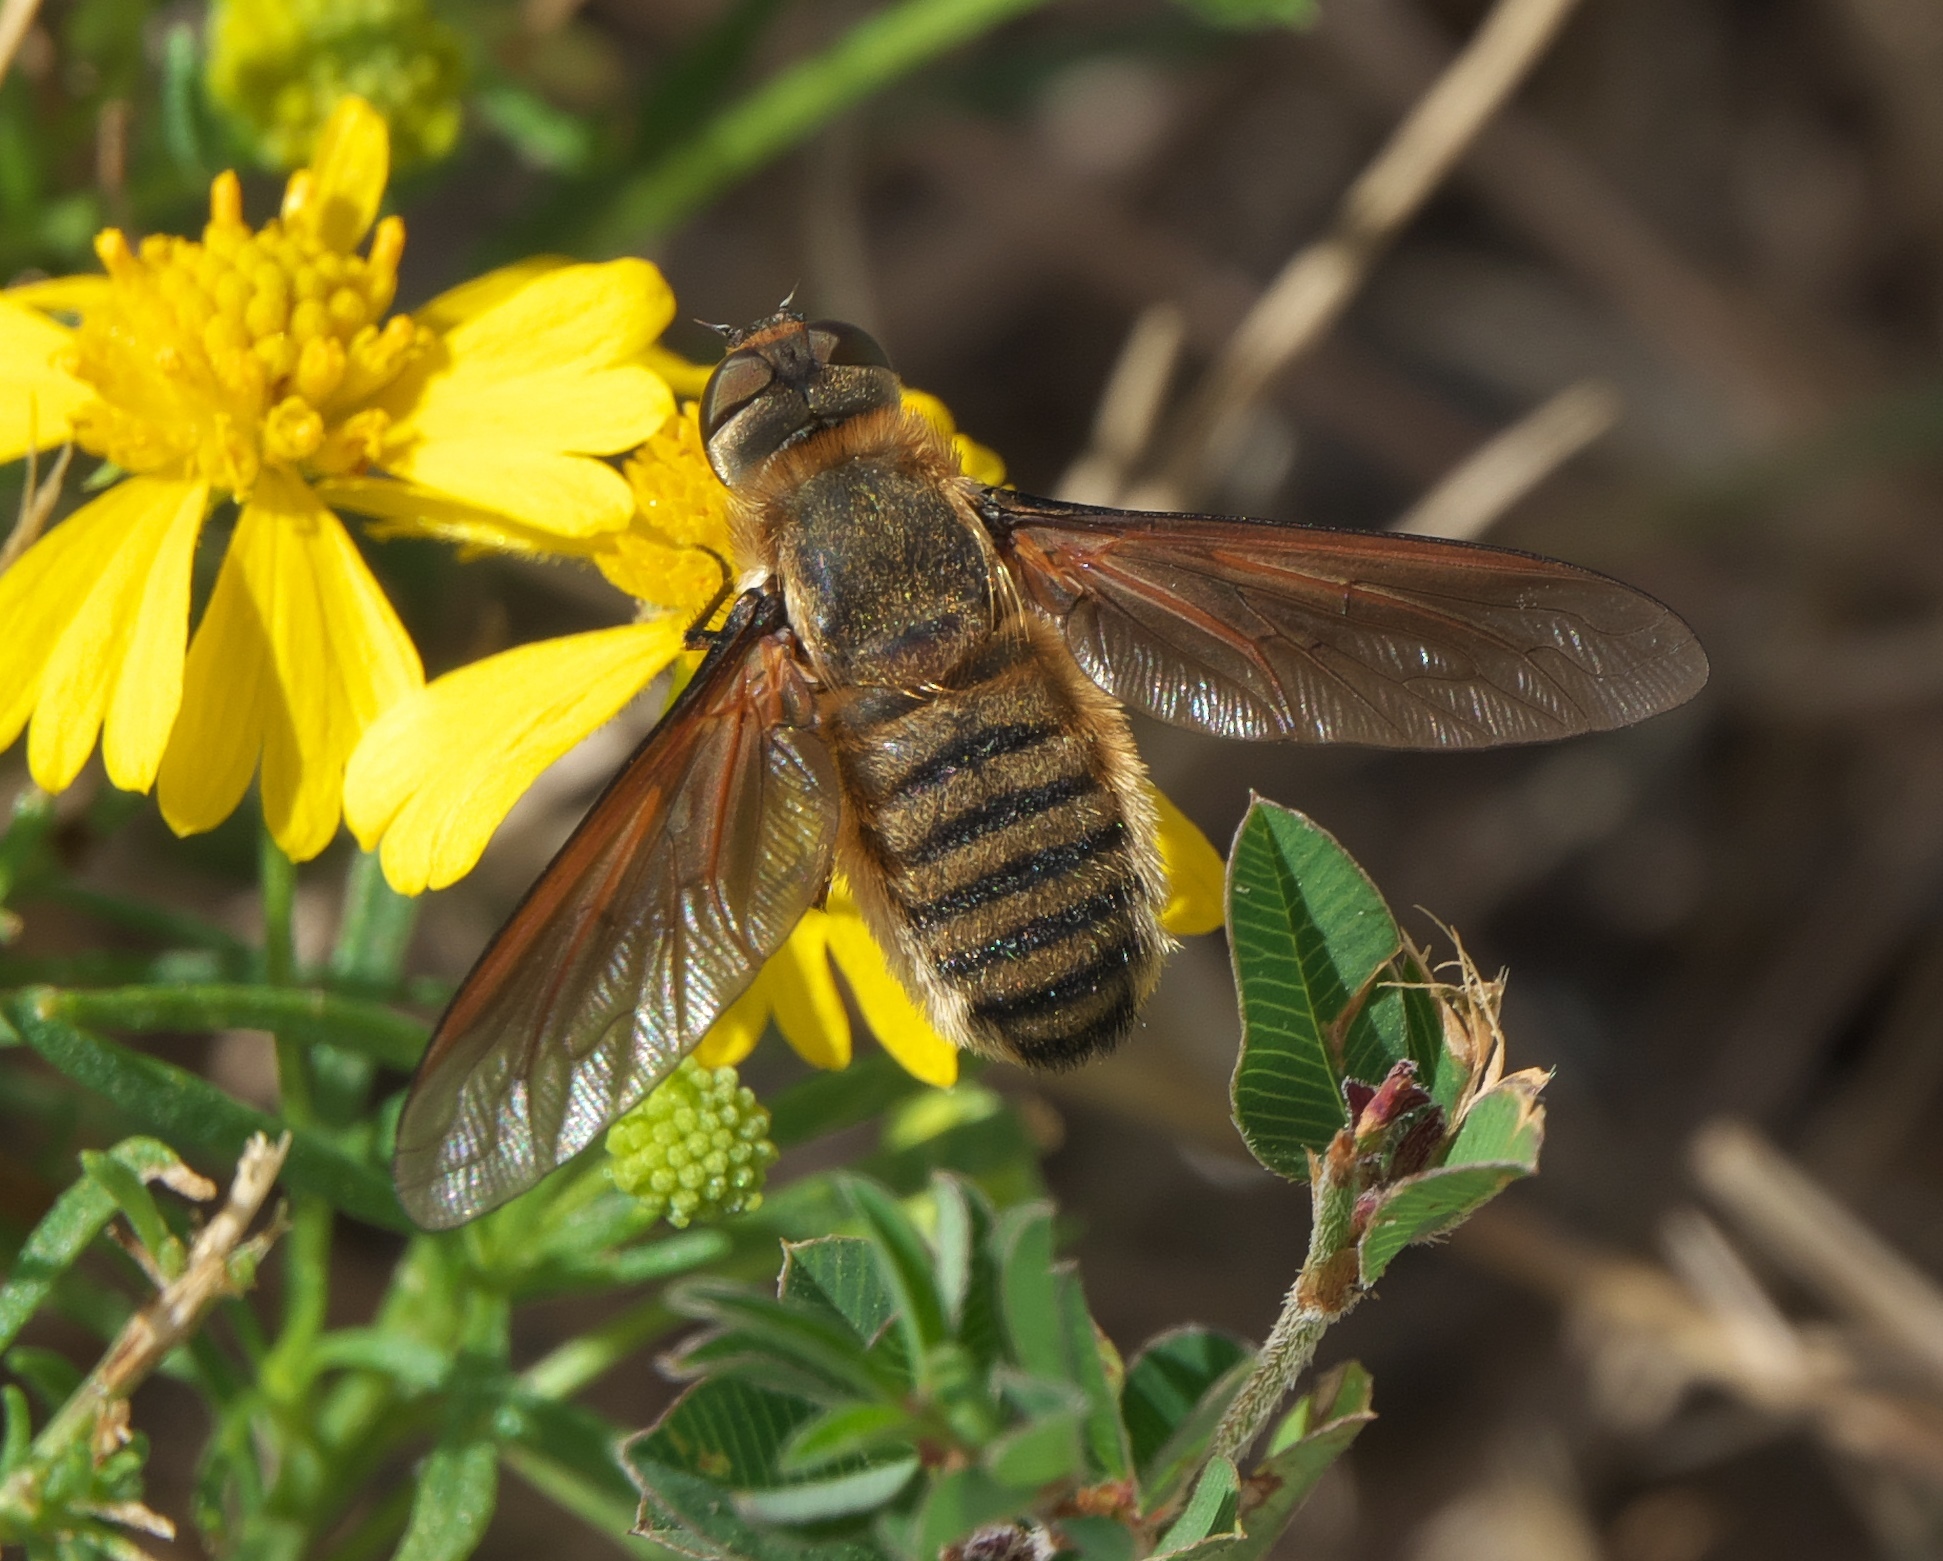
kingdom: Animalia
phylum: Arthropoda
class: Insecta
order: Diptera
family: Bombyliidae
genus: Poecilanthrax
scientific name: Poecilanthrax lucifer
